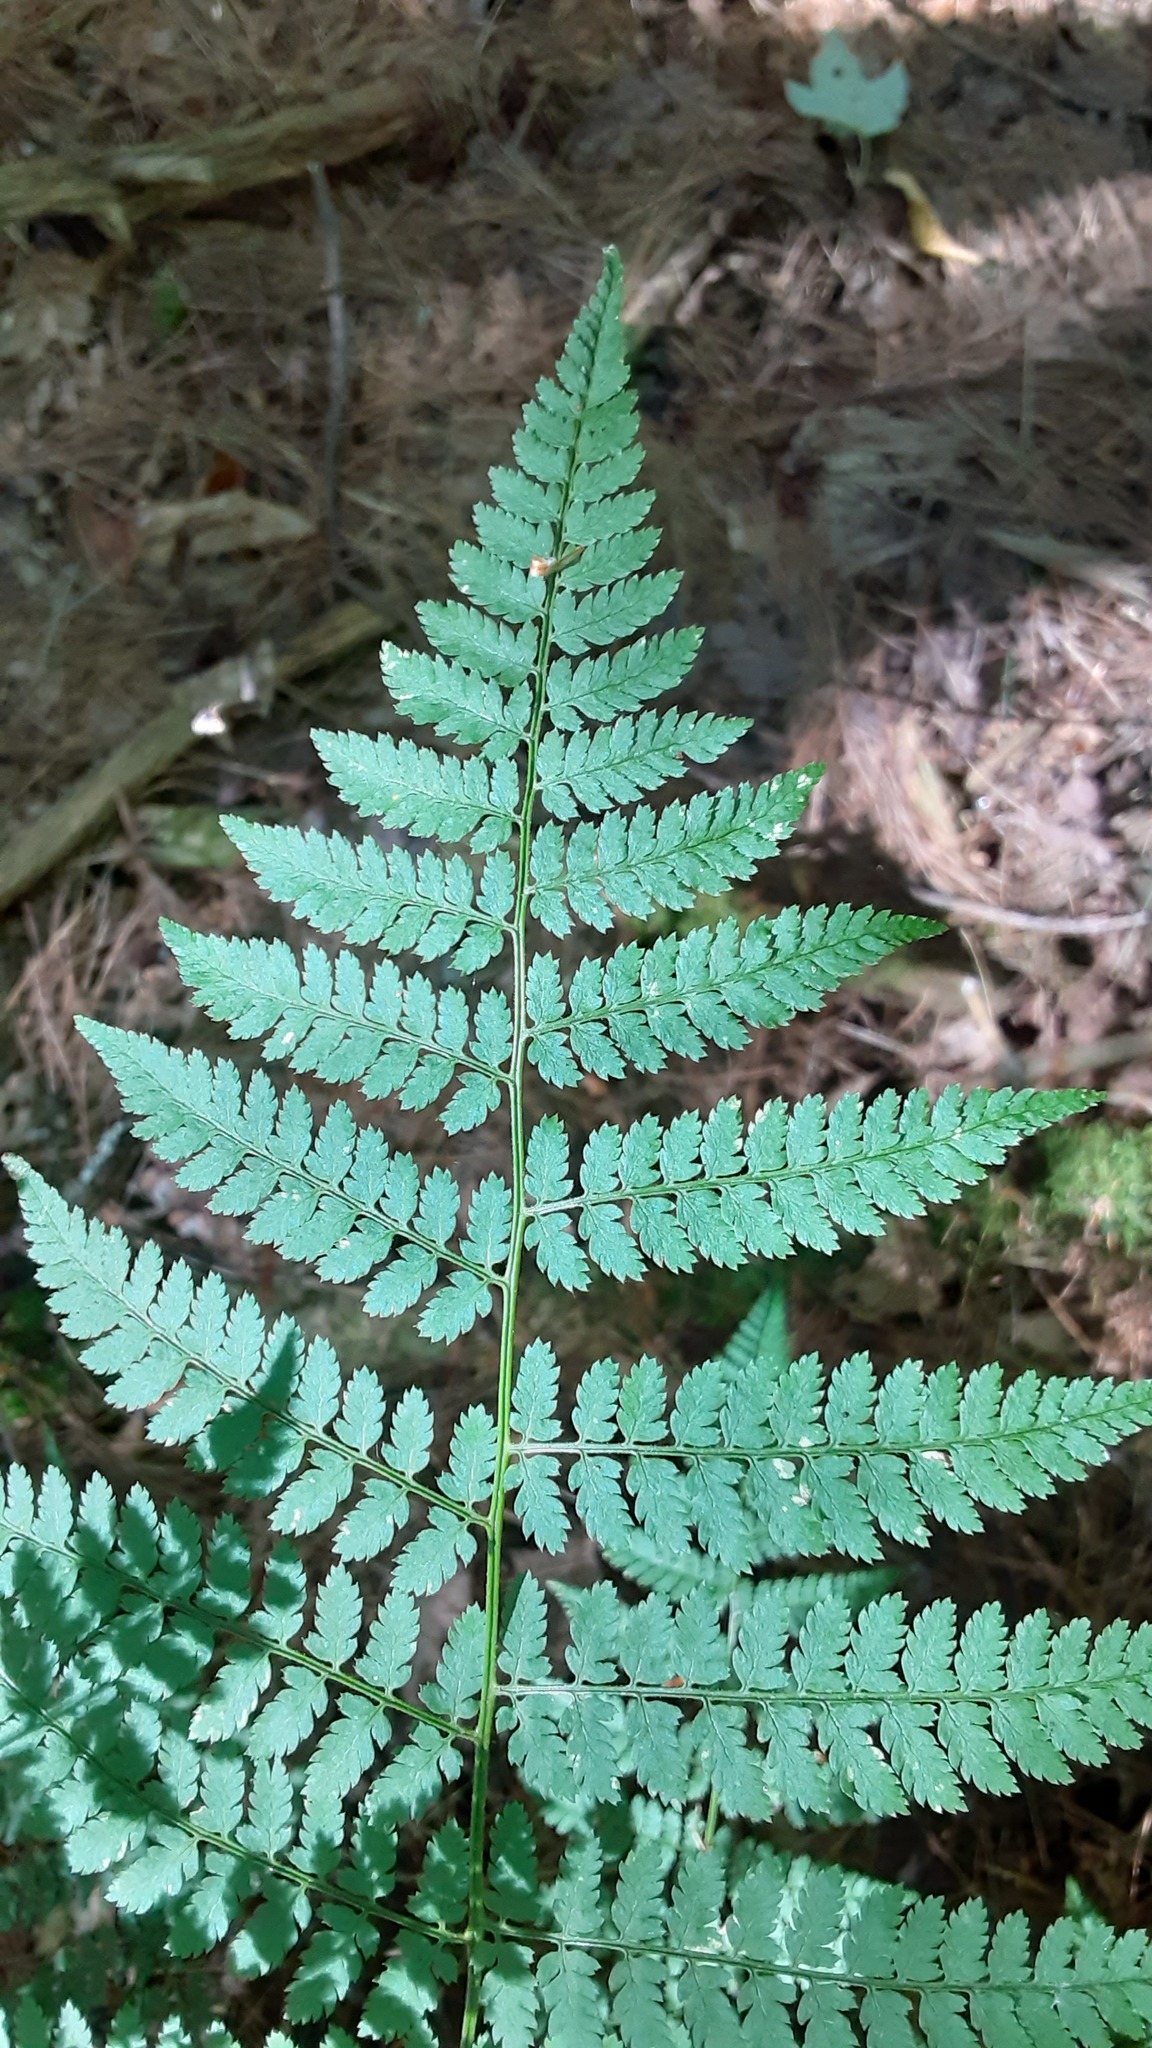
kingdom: Plantae
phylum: Tracheophyta
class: Polypodiopsida
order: Polypodiales
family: Dryopteridaceae
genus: Dryopteris
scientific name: Dryopteris intermedia
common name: Evergreen wood fern
